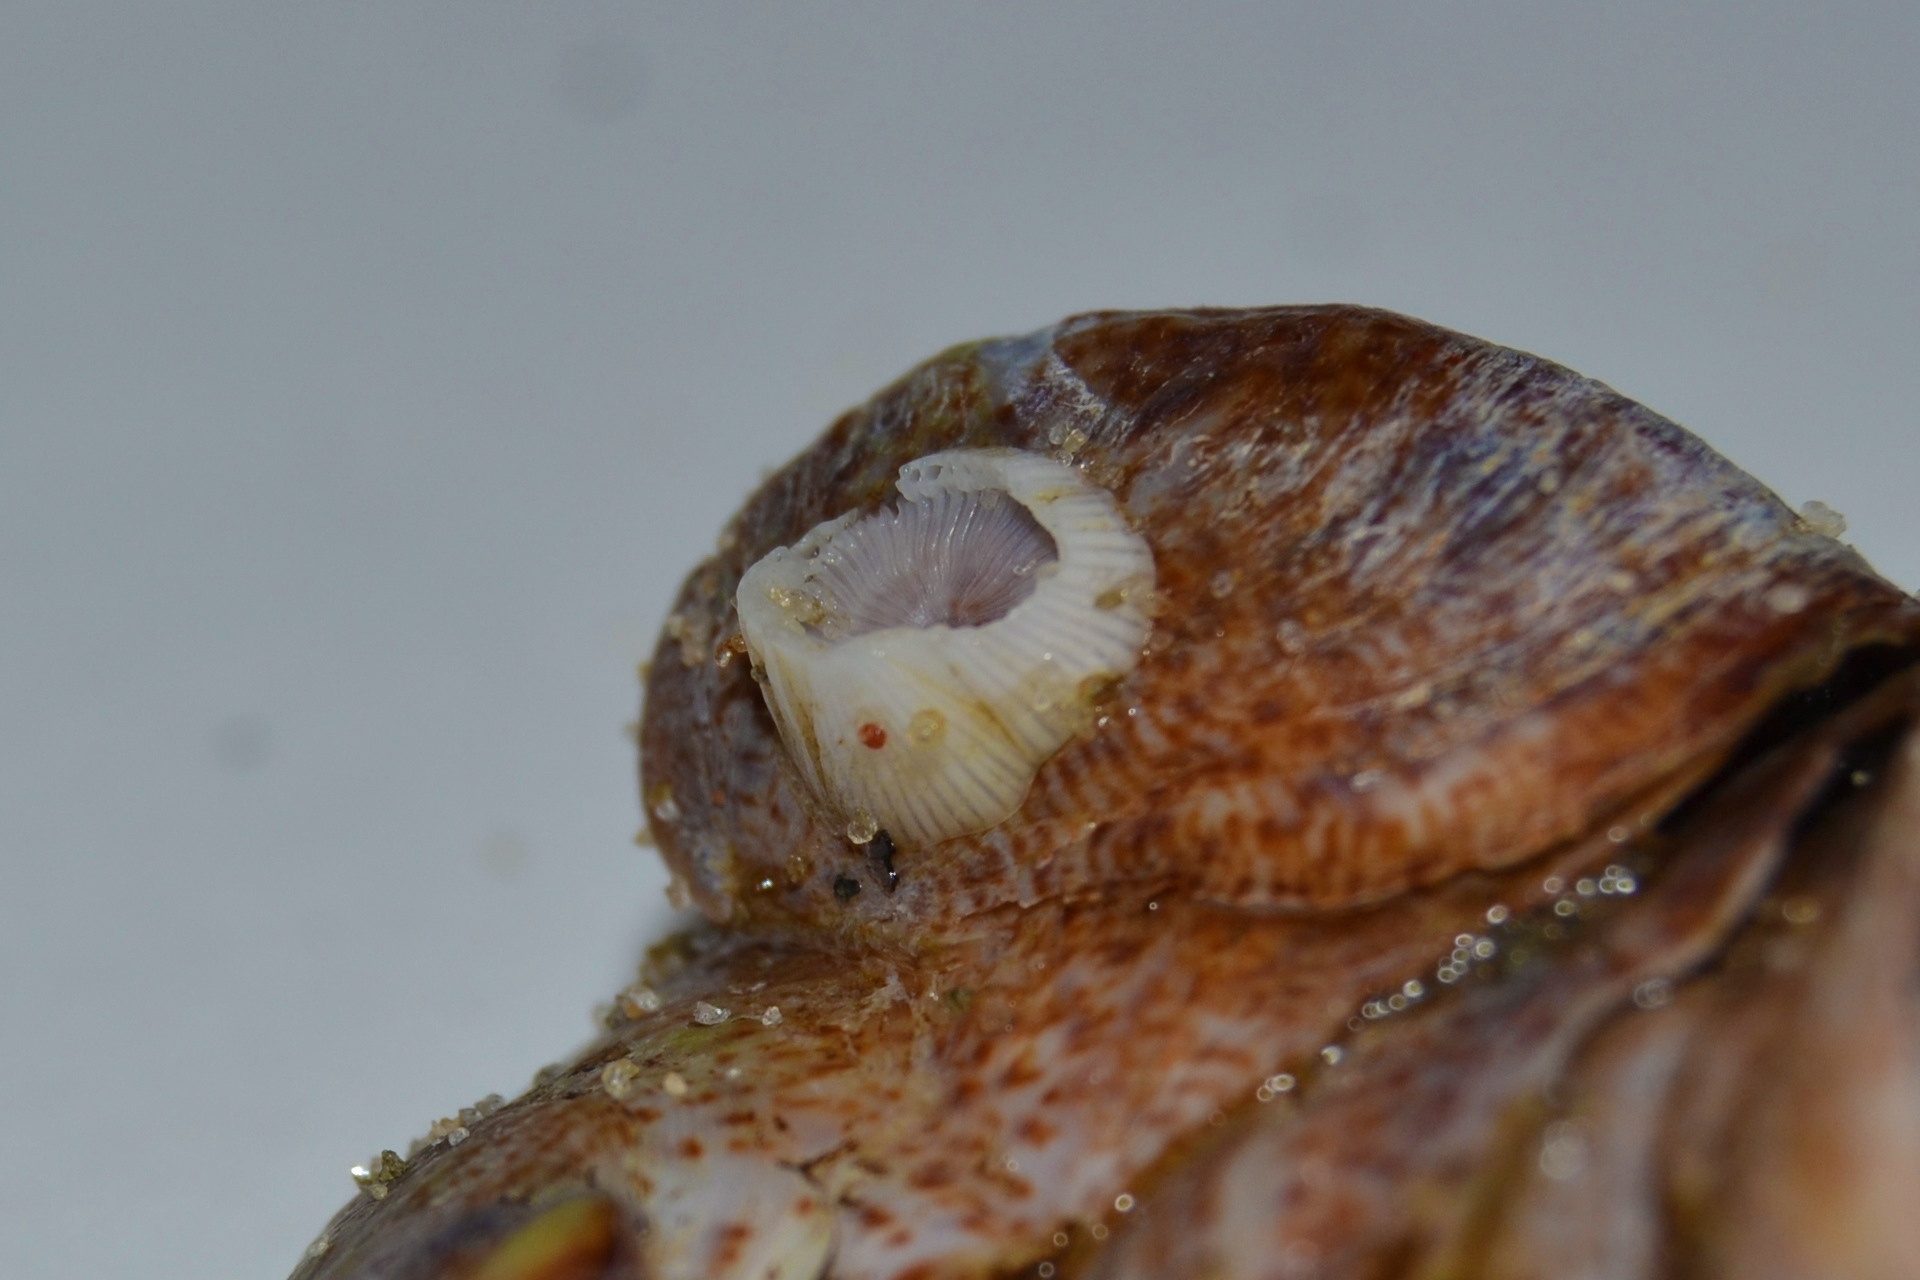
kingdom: Animalia
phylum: Arthropoda
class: Maxillopoda
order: Sessilia
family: Balanidae
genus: Amphibalanus
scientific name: Amphibalanus venustus
